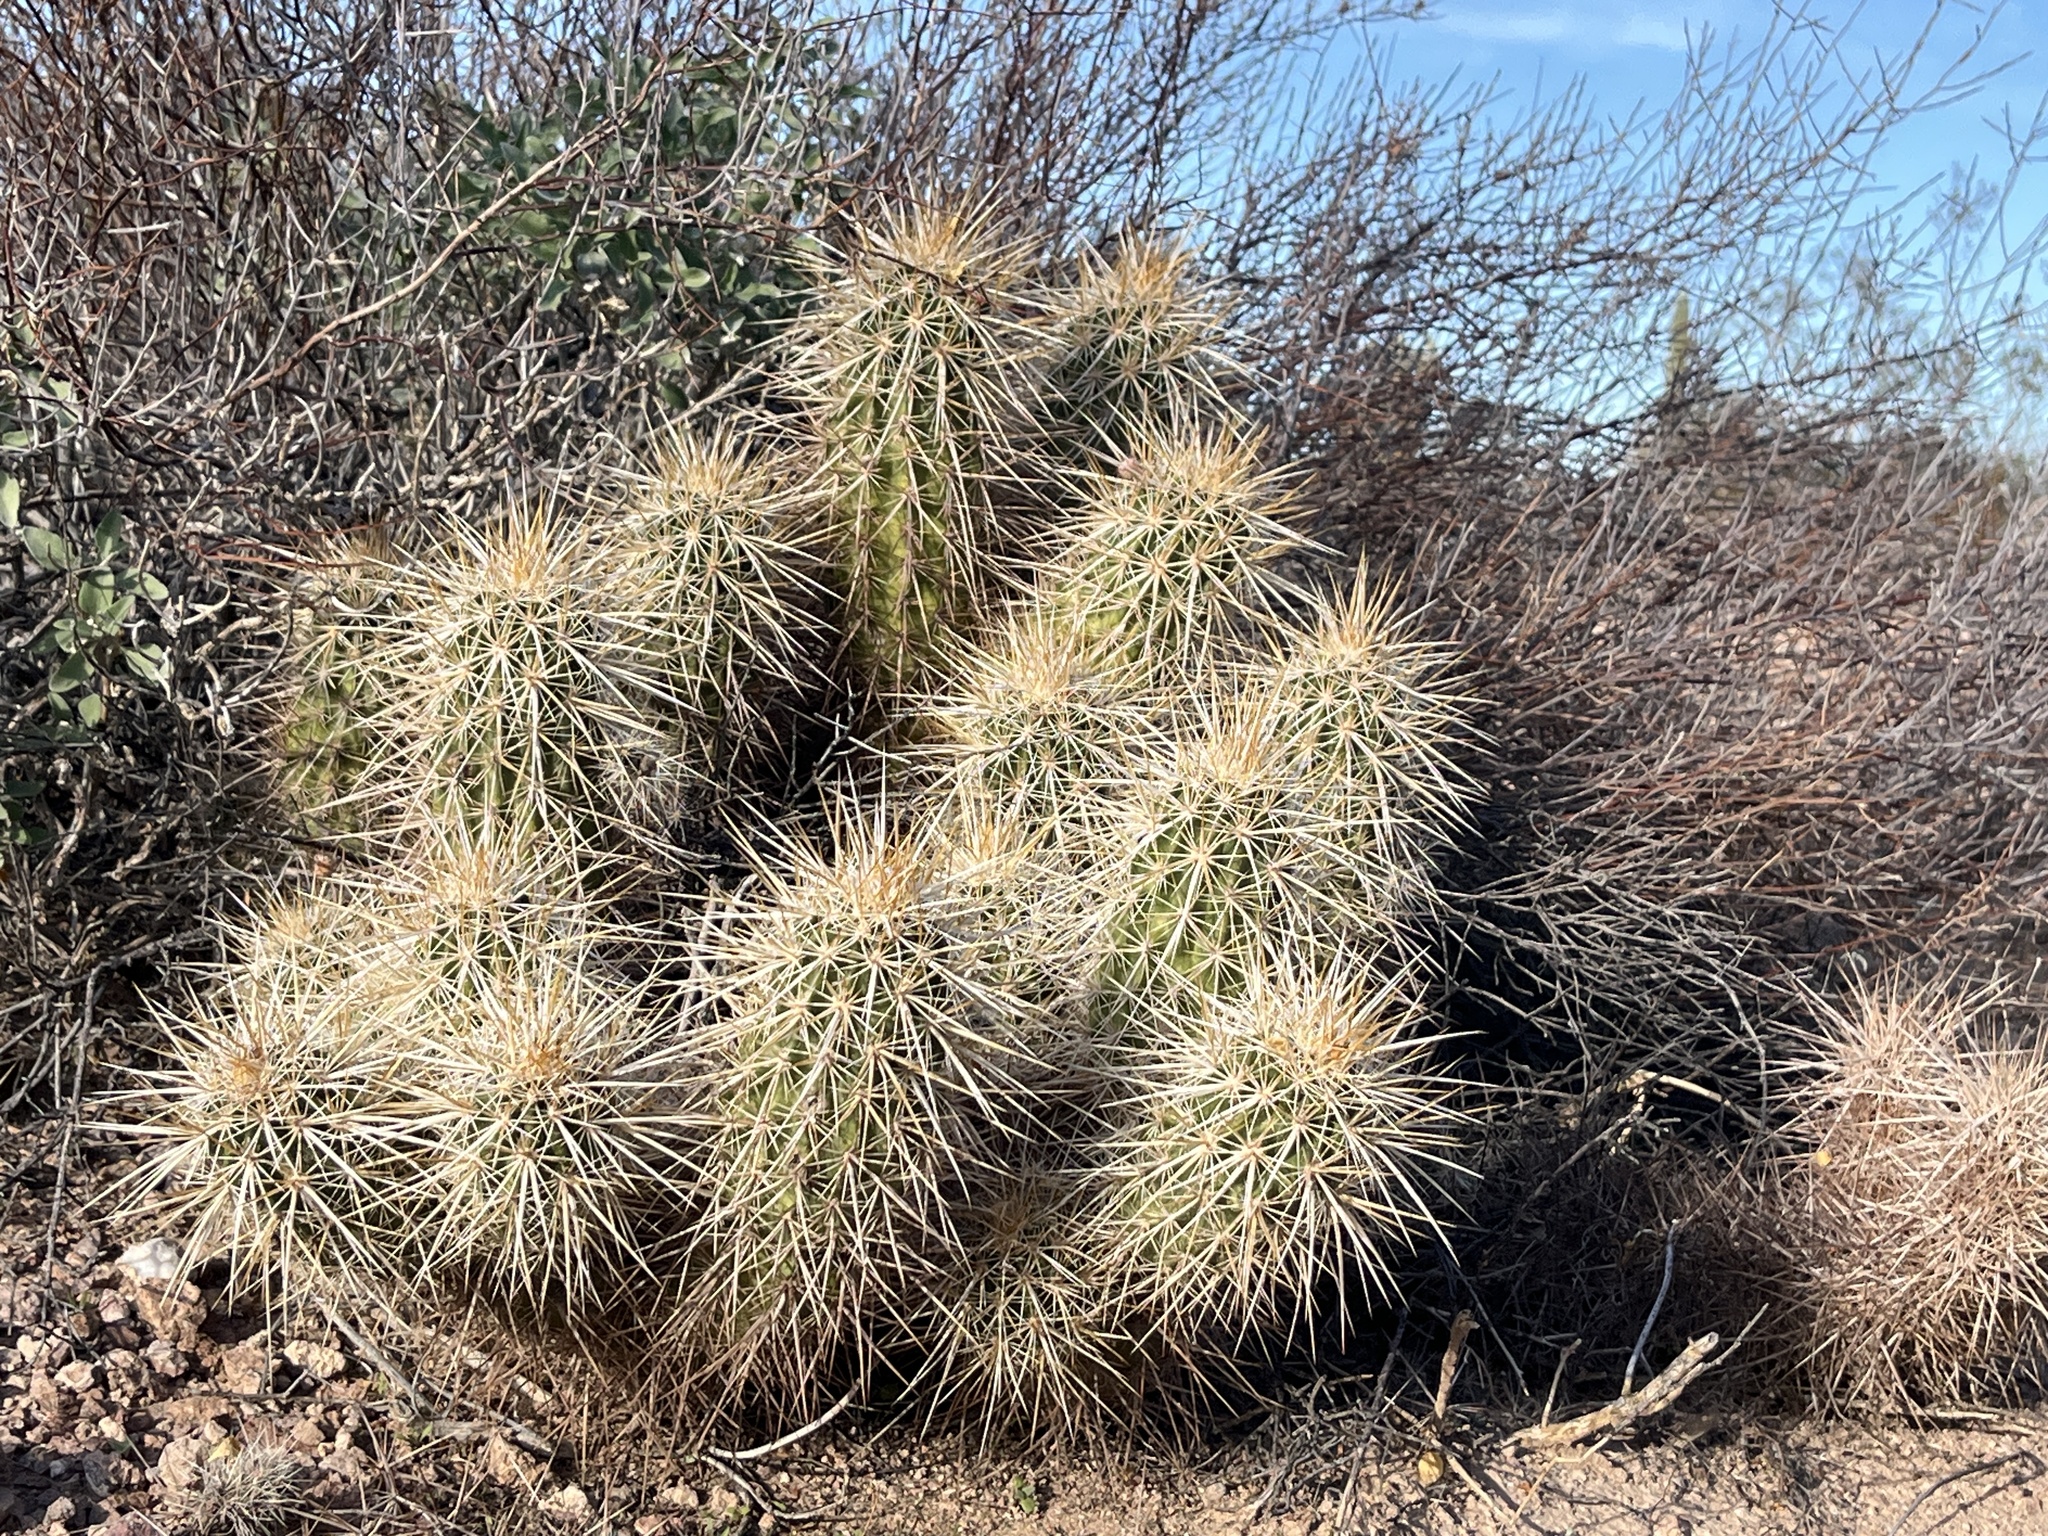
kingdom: Plantae
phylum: Tracheophyta
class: Magnoliopsida
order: Caryophyllales
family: Cactaceae
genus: Echinocereus
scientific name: Echinocereus engelmannii
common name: Engelmann's hedgehog cactus
